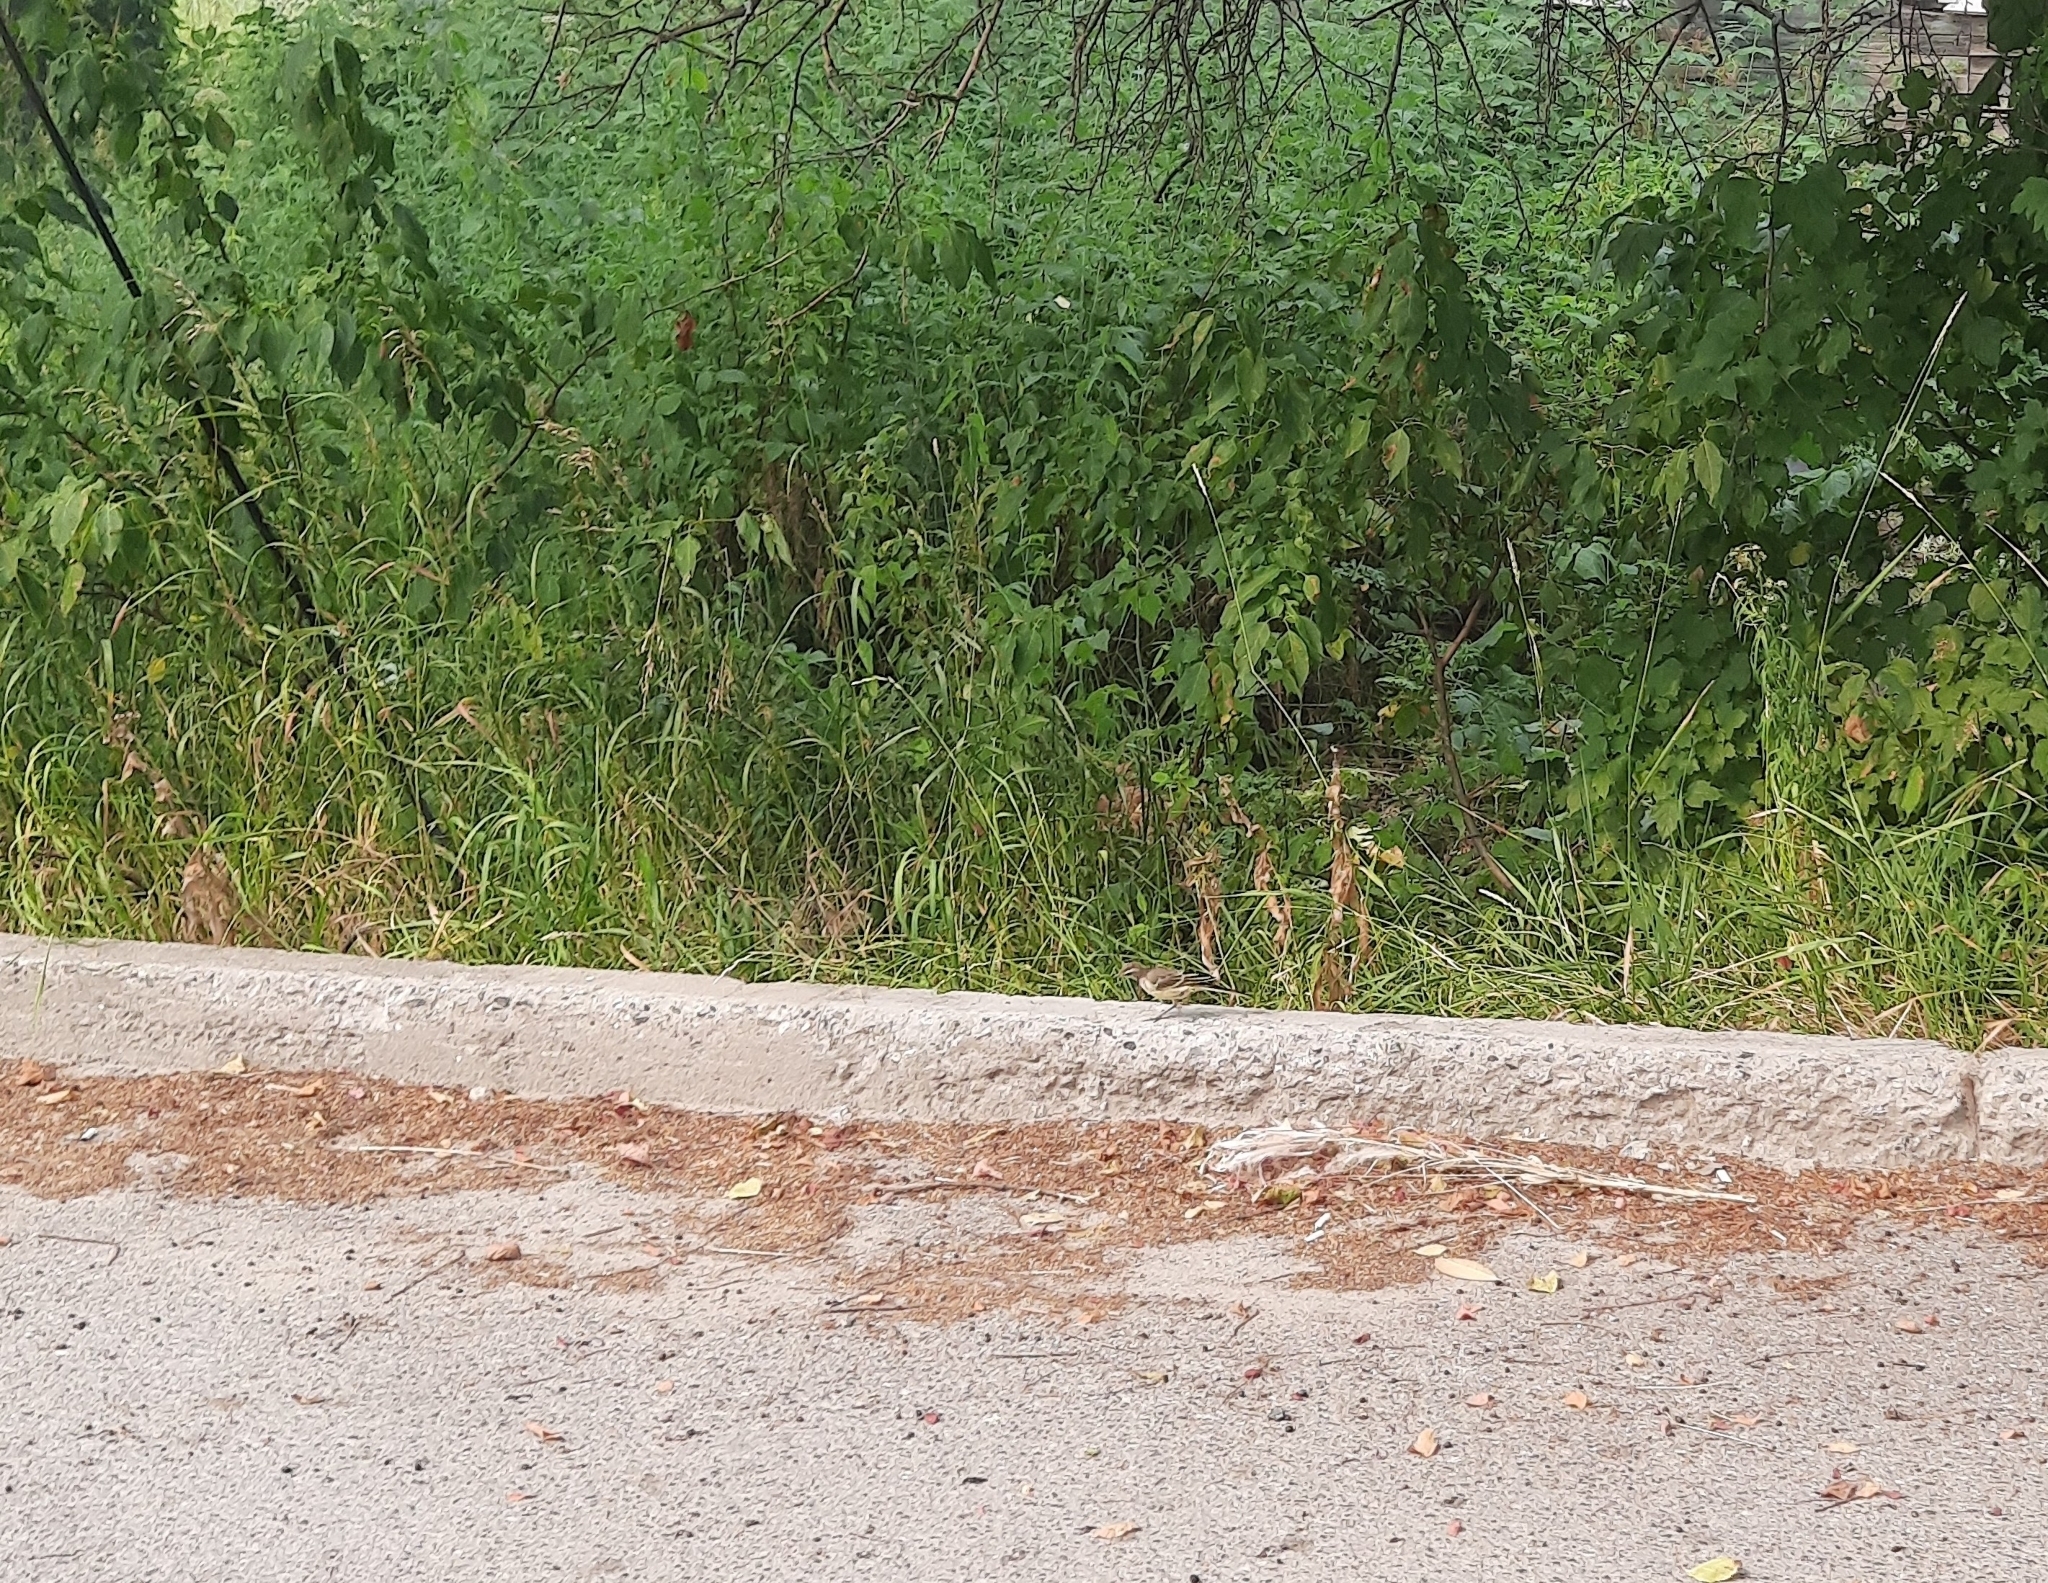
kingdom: Animalia
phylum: Chordata
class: Aves
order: Passeriformes
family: Motacillidae
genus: Motacilla
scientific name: Motacilla flava
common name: Western yellow wagtail
